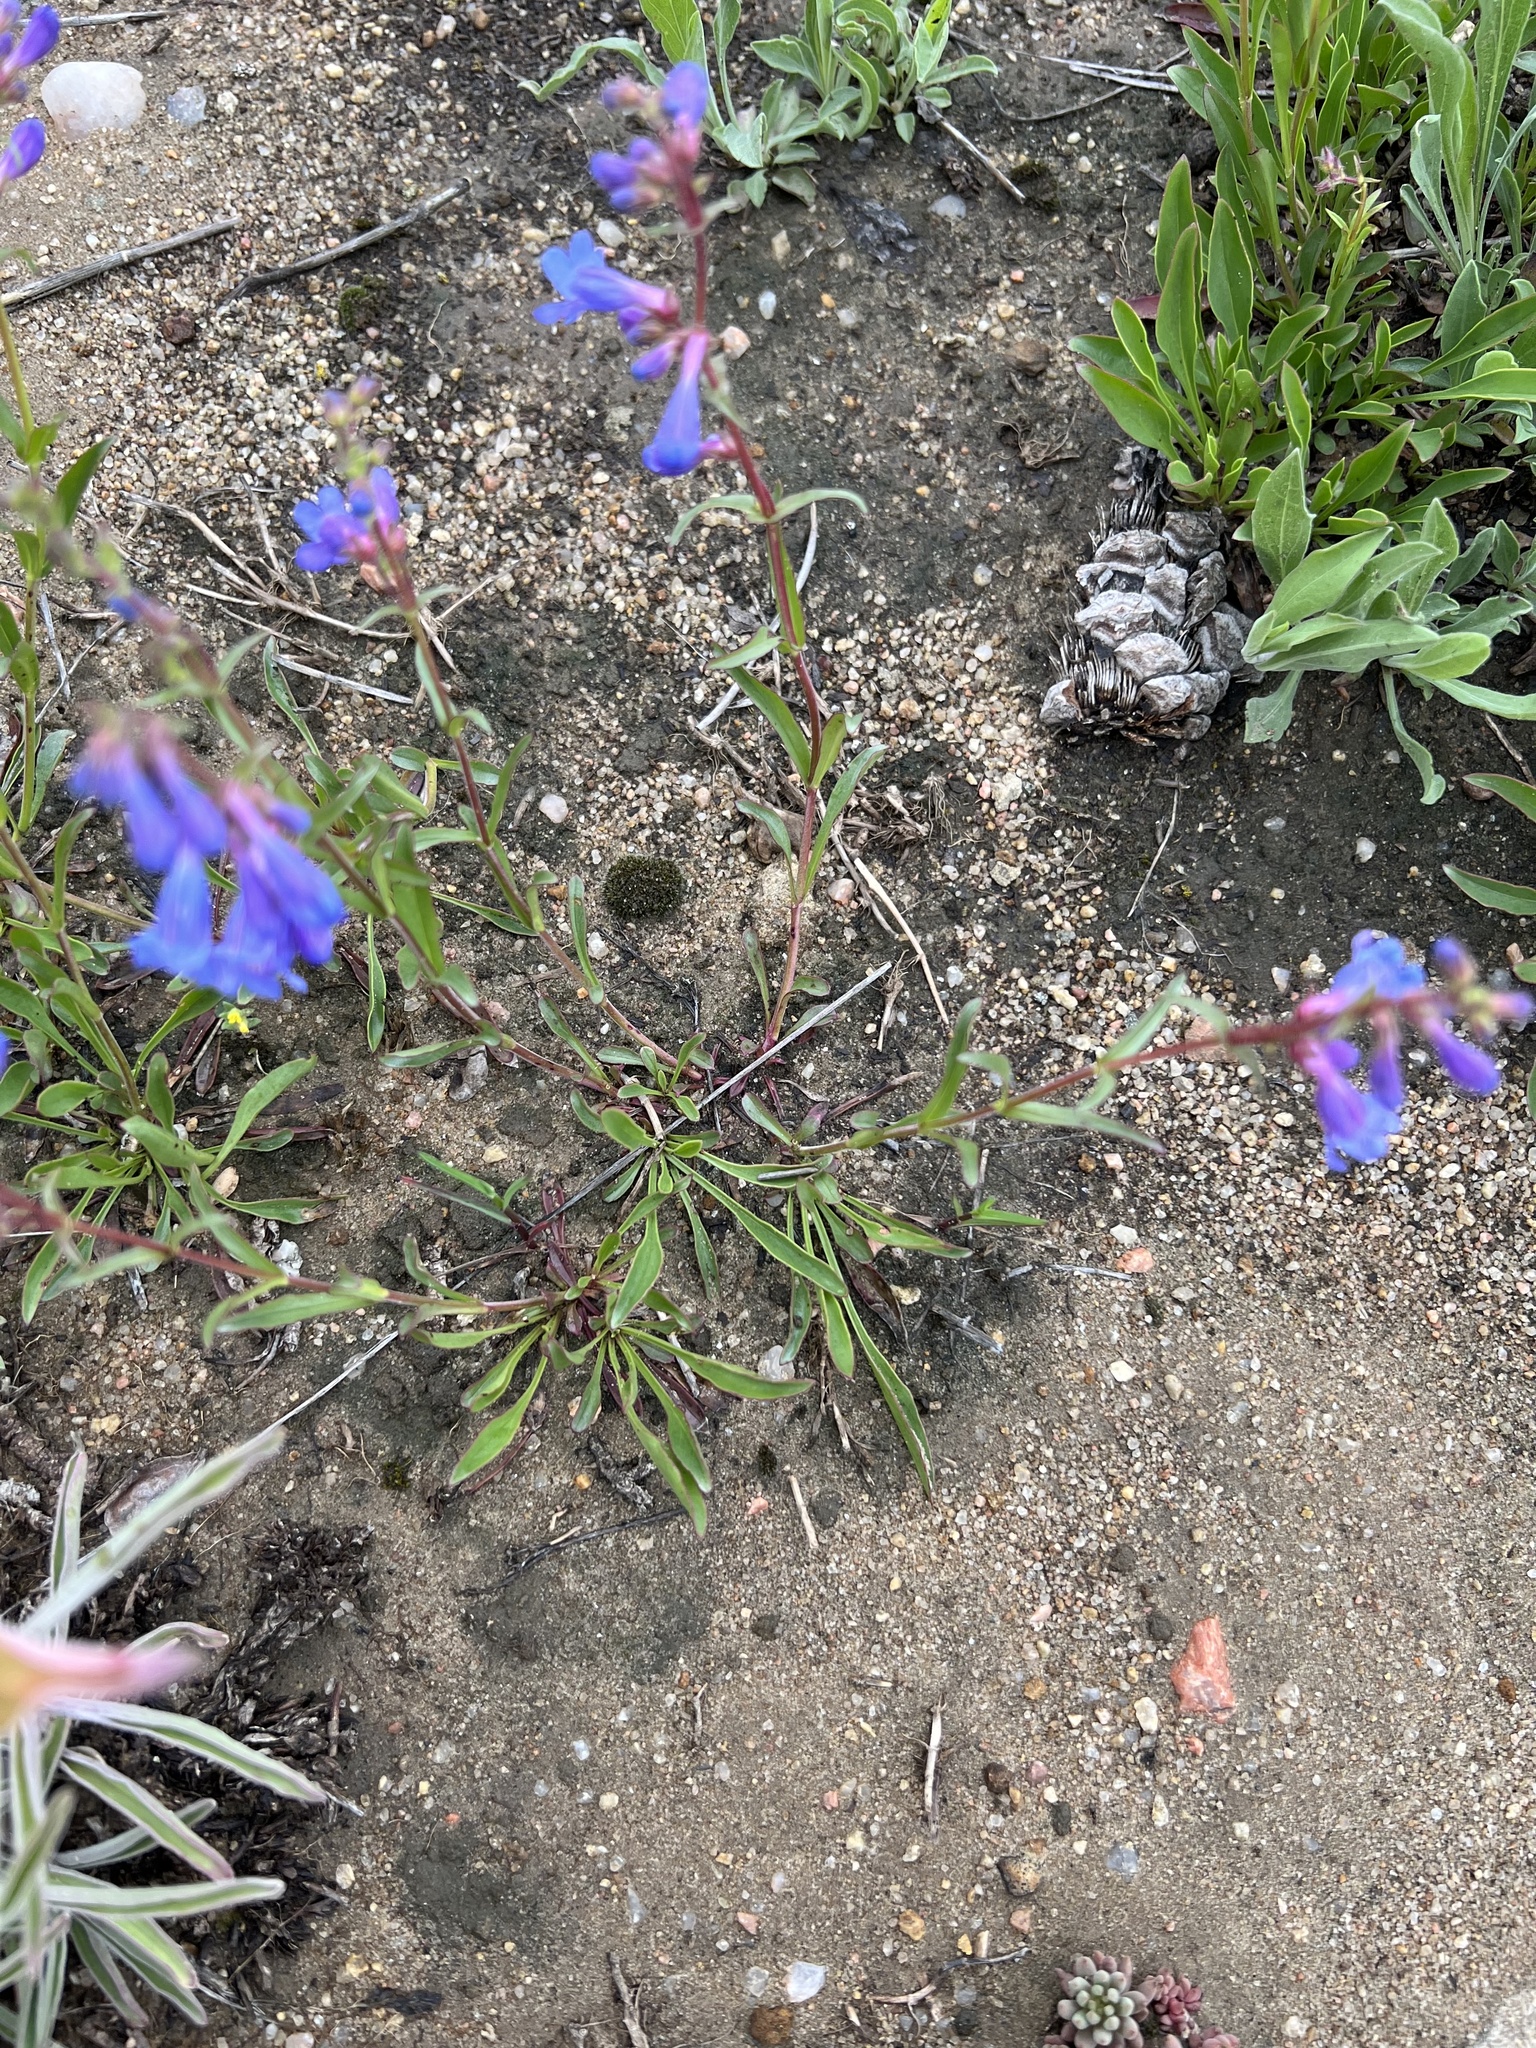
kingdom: Plantae
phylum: Tracheophyta
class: Magnoliopsida
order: Lamiales
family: Plantaginaceae
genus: Penstemon
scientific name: Penstemon virens
